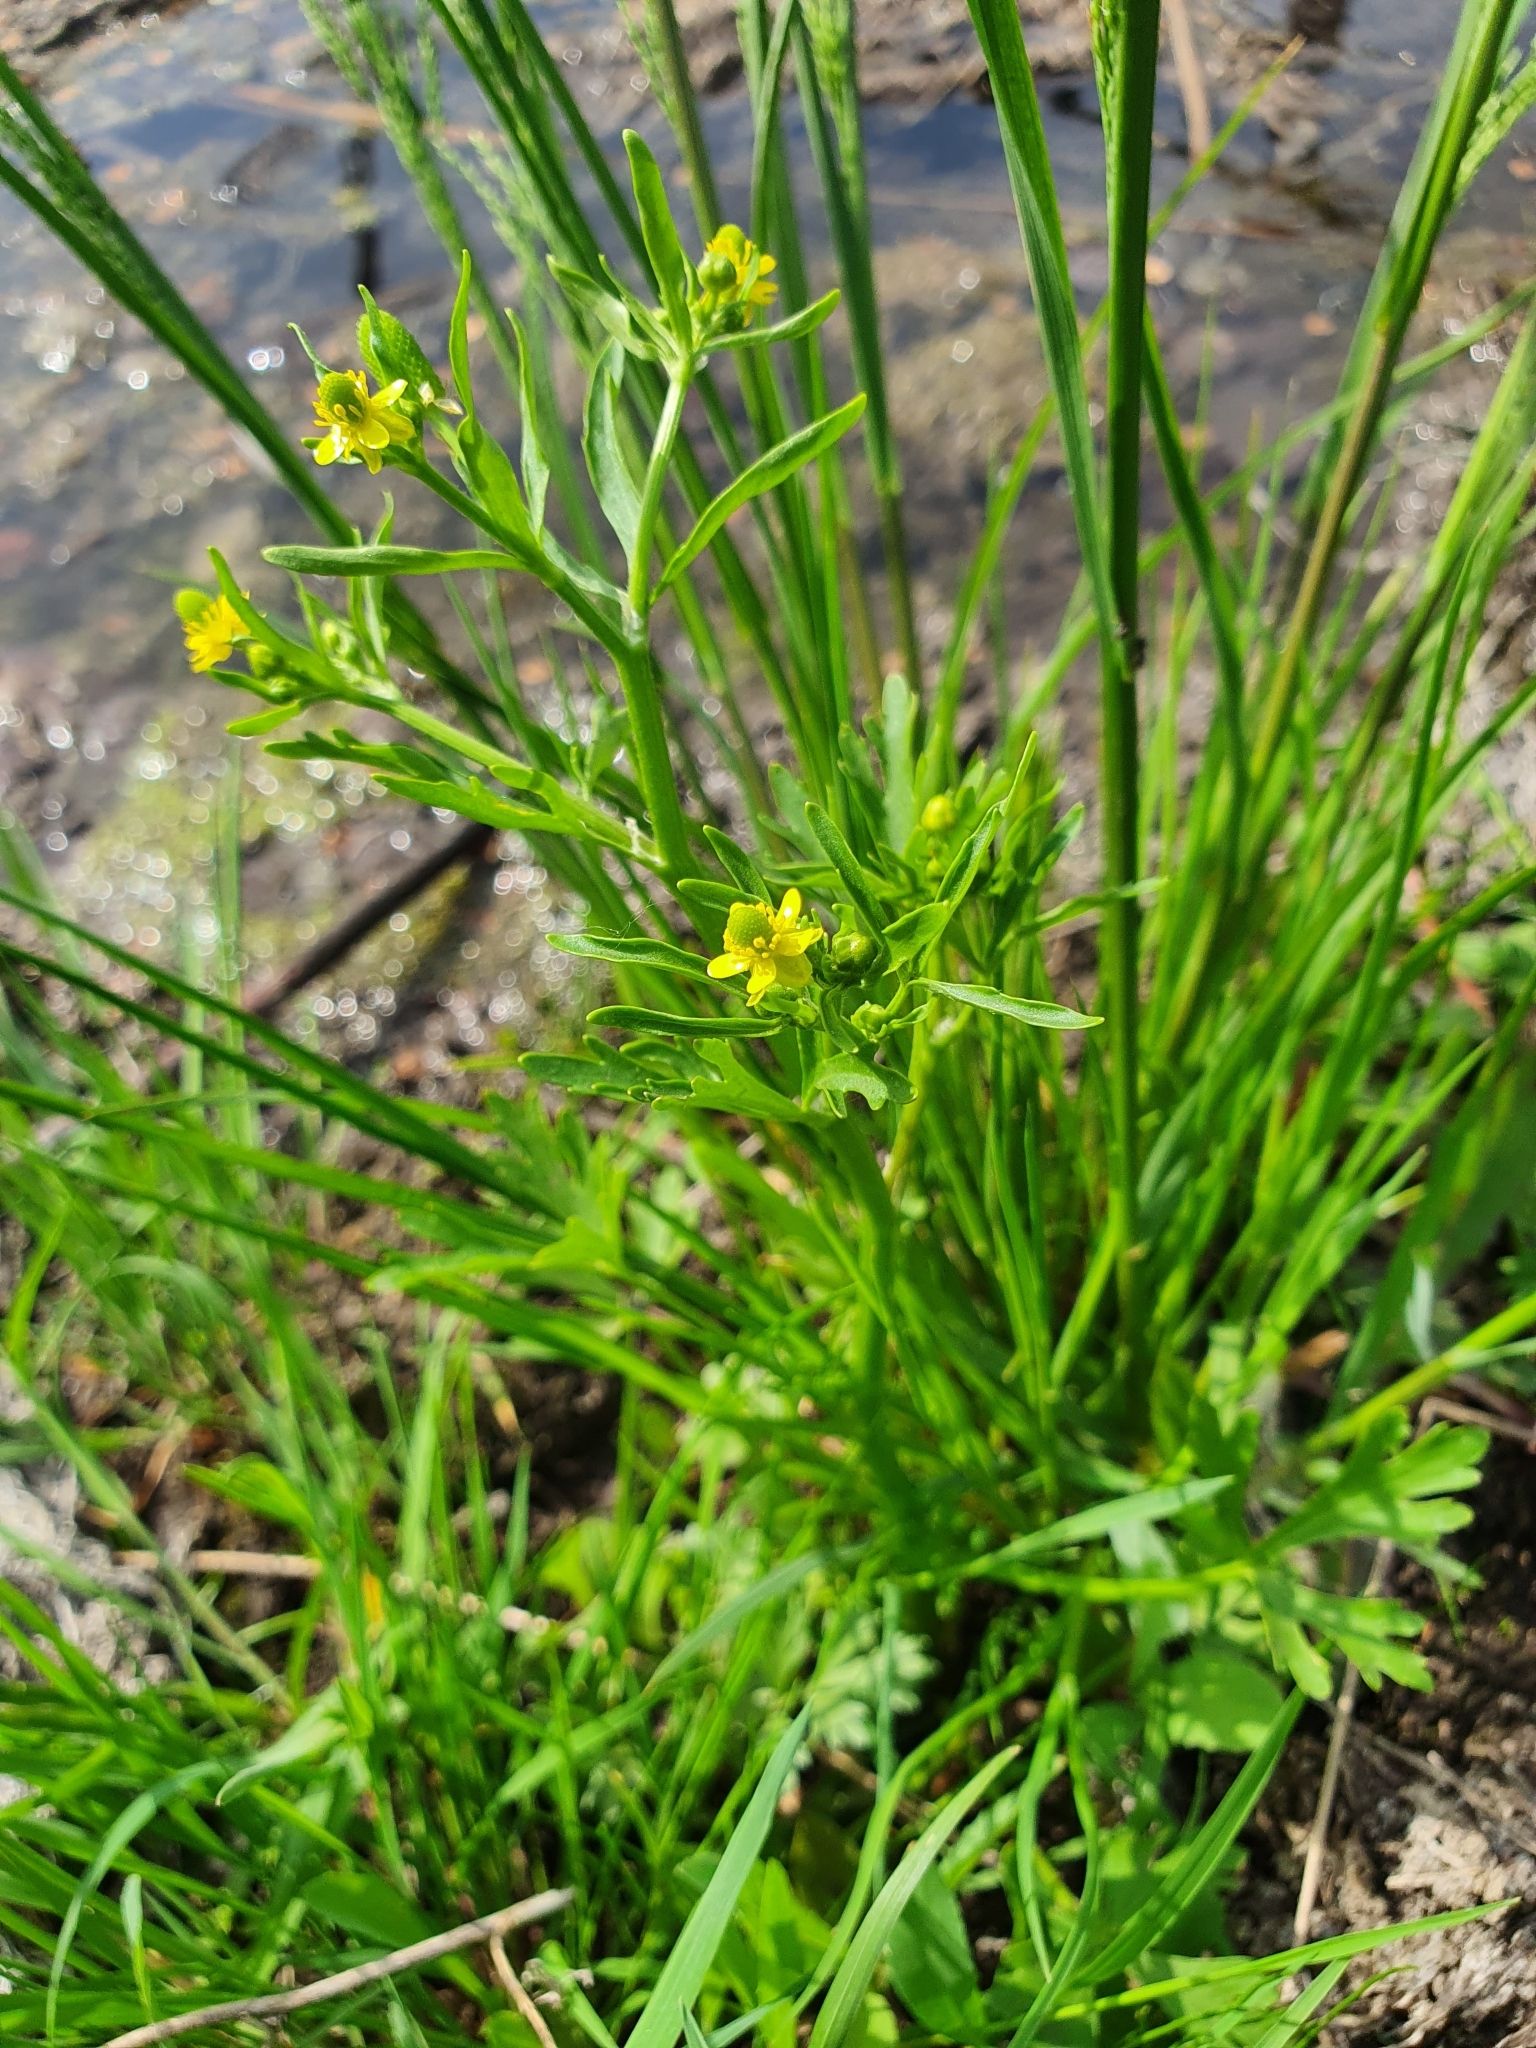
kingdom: Plantae
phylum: Tracheophyta
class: Magnoliopsida
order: Ranunculales
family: Ranunculaceae
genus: Ranunculus
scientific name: Ranunculus sceleratus
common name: Celery-leaved buttercup
